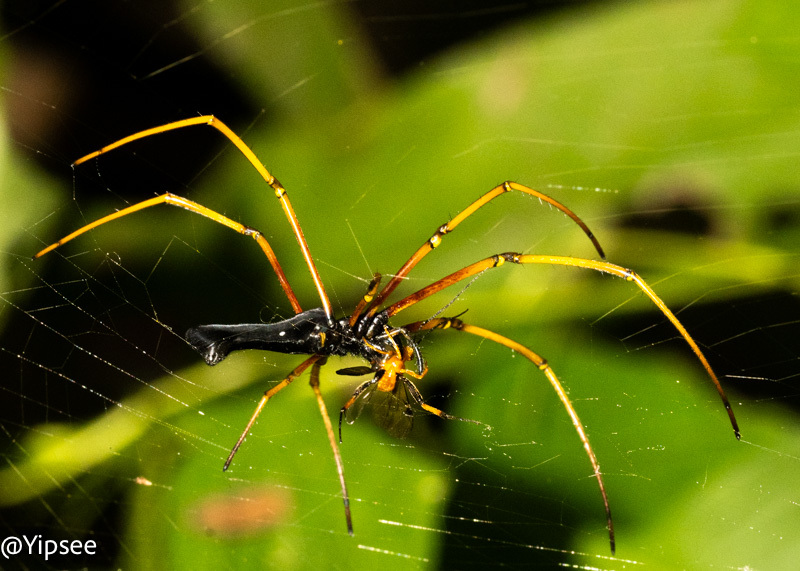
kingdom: Animalia
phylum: Arthropoda
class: Arachnida
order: Araneae
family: Araneidae
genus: Nephila
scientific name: Nephila kuhli
